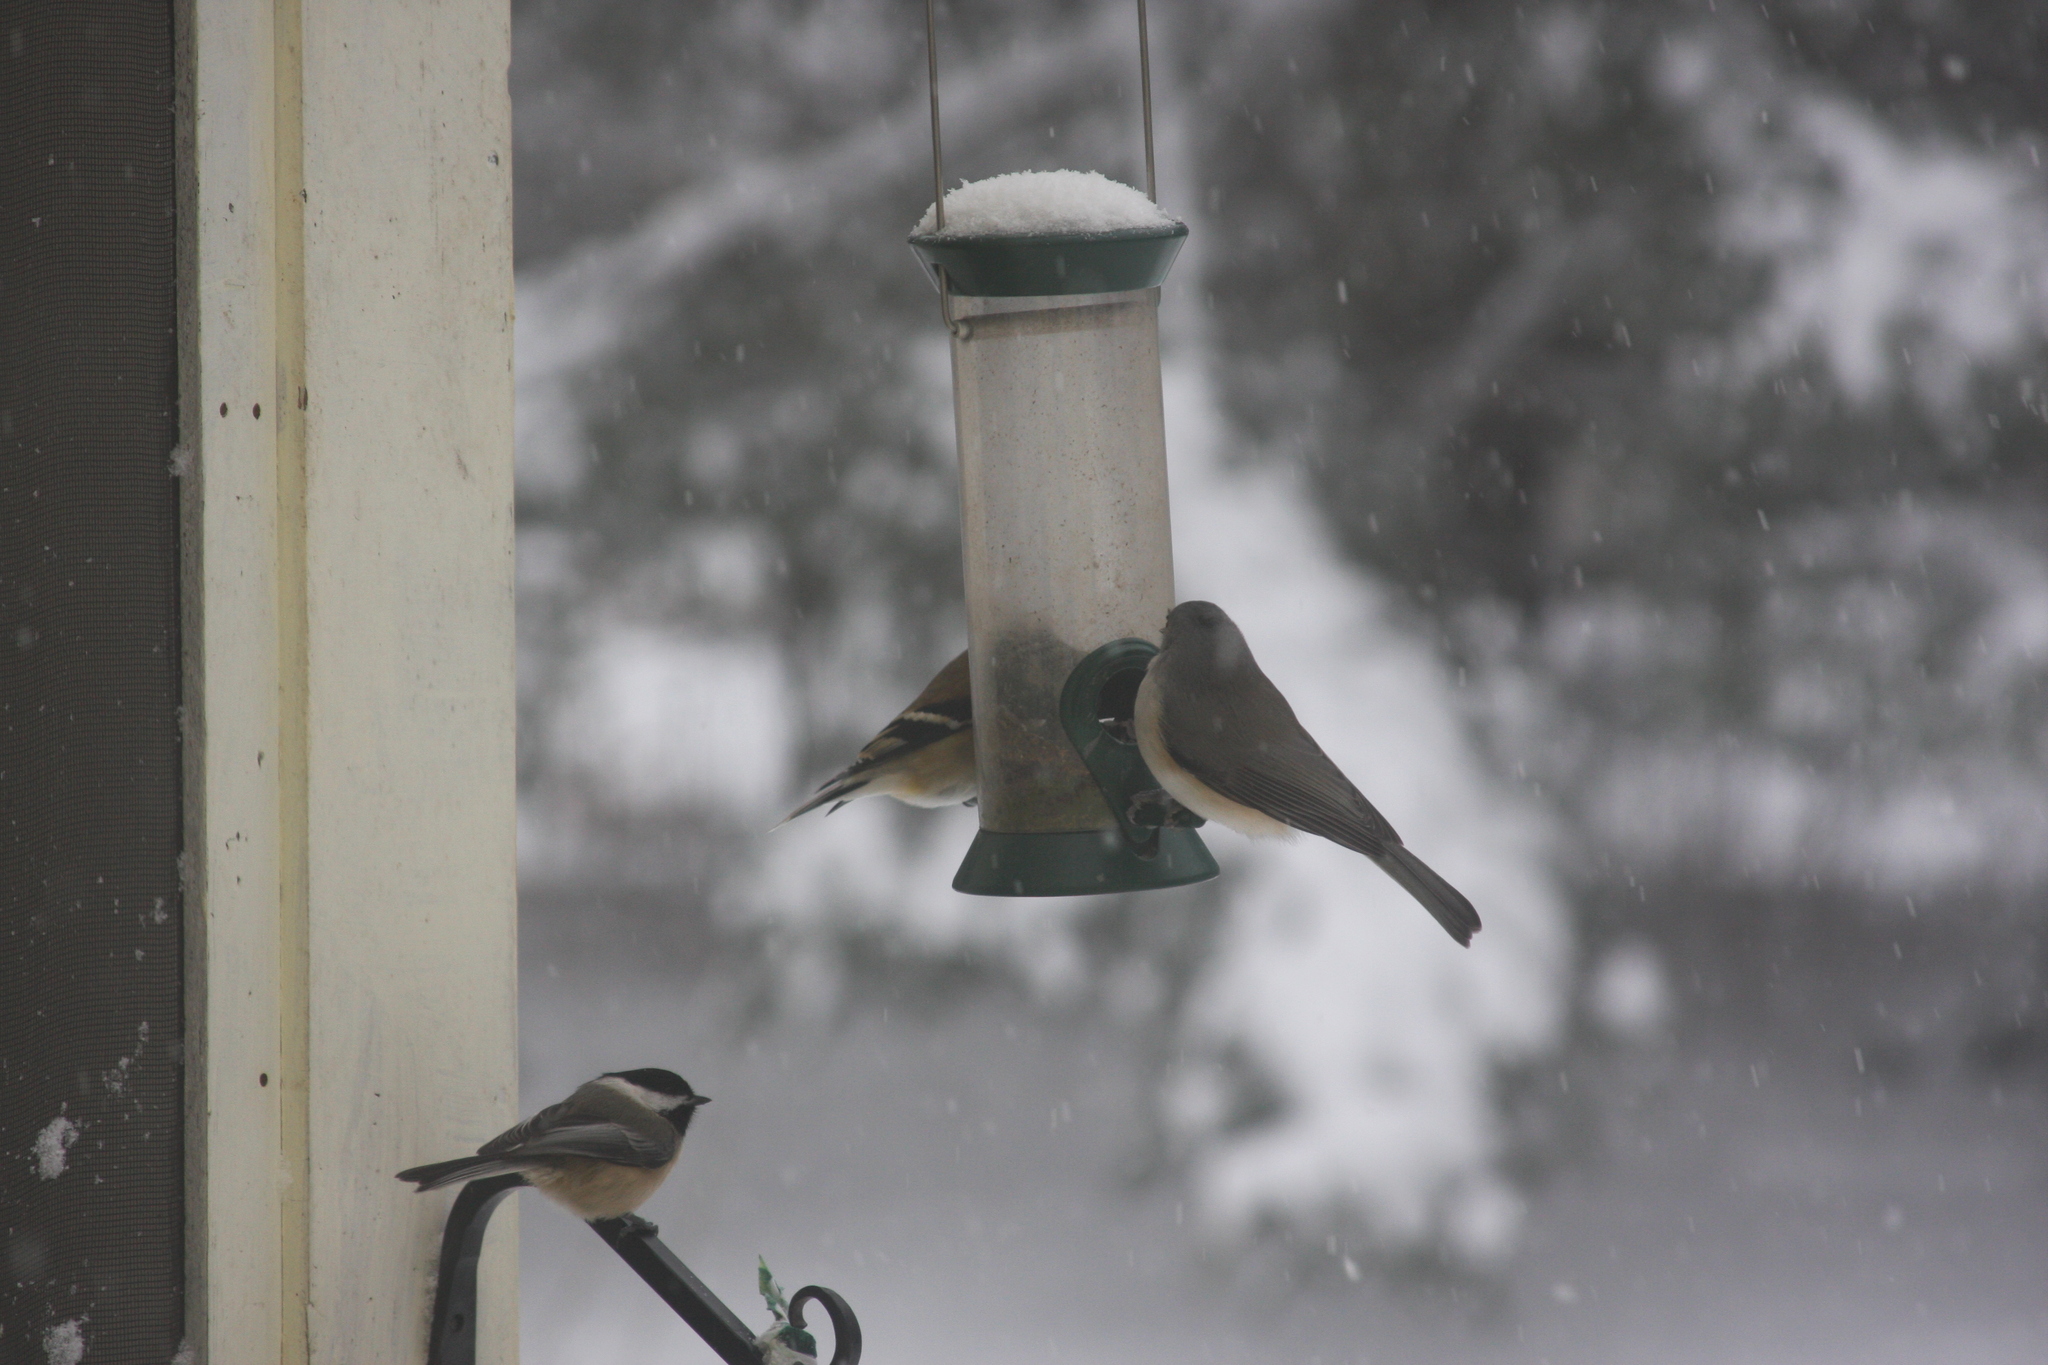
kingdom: Animalia
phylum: Chordata
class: Aves
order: Passeriformes
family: Paridae
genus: Baeolophus
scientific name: Baeolophus bicolor
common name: Tufted titmouse
